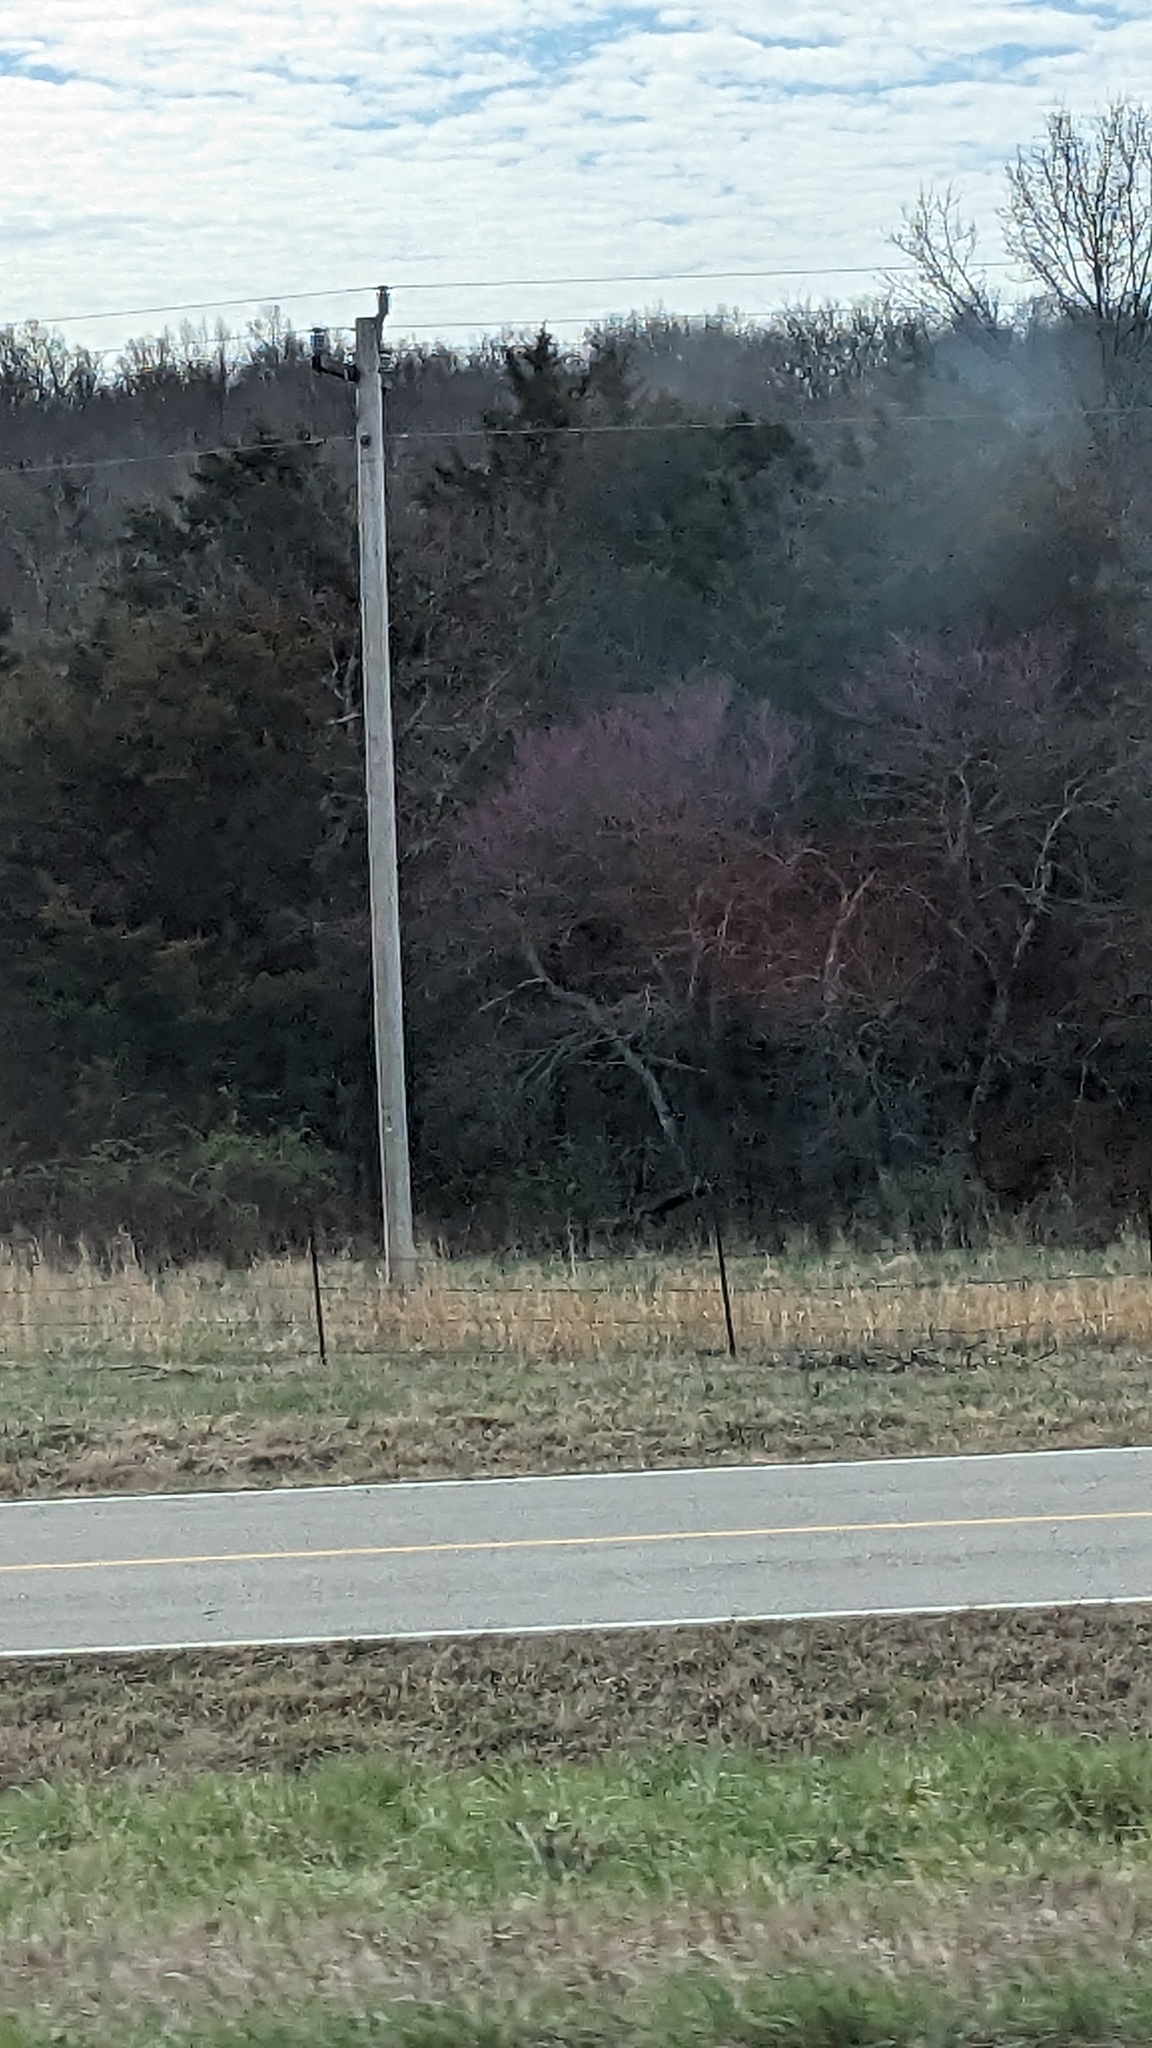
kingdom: Plantae
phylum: Tracheophyta
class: Pinopsida
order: Pinales
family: Cupressaceae
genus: Juniperus
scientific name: Juniperus virginiana
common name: Red juniper
